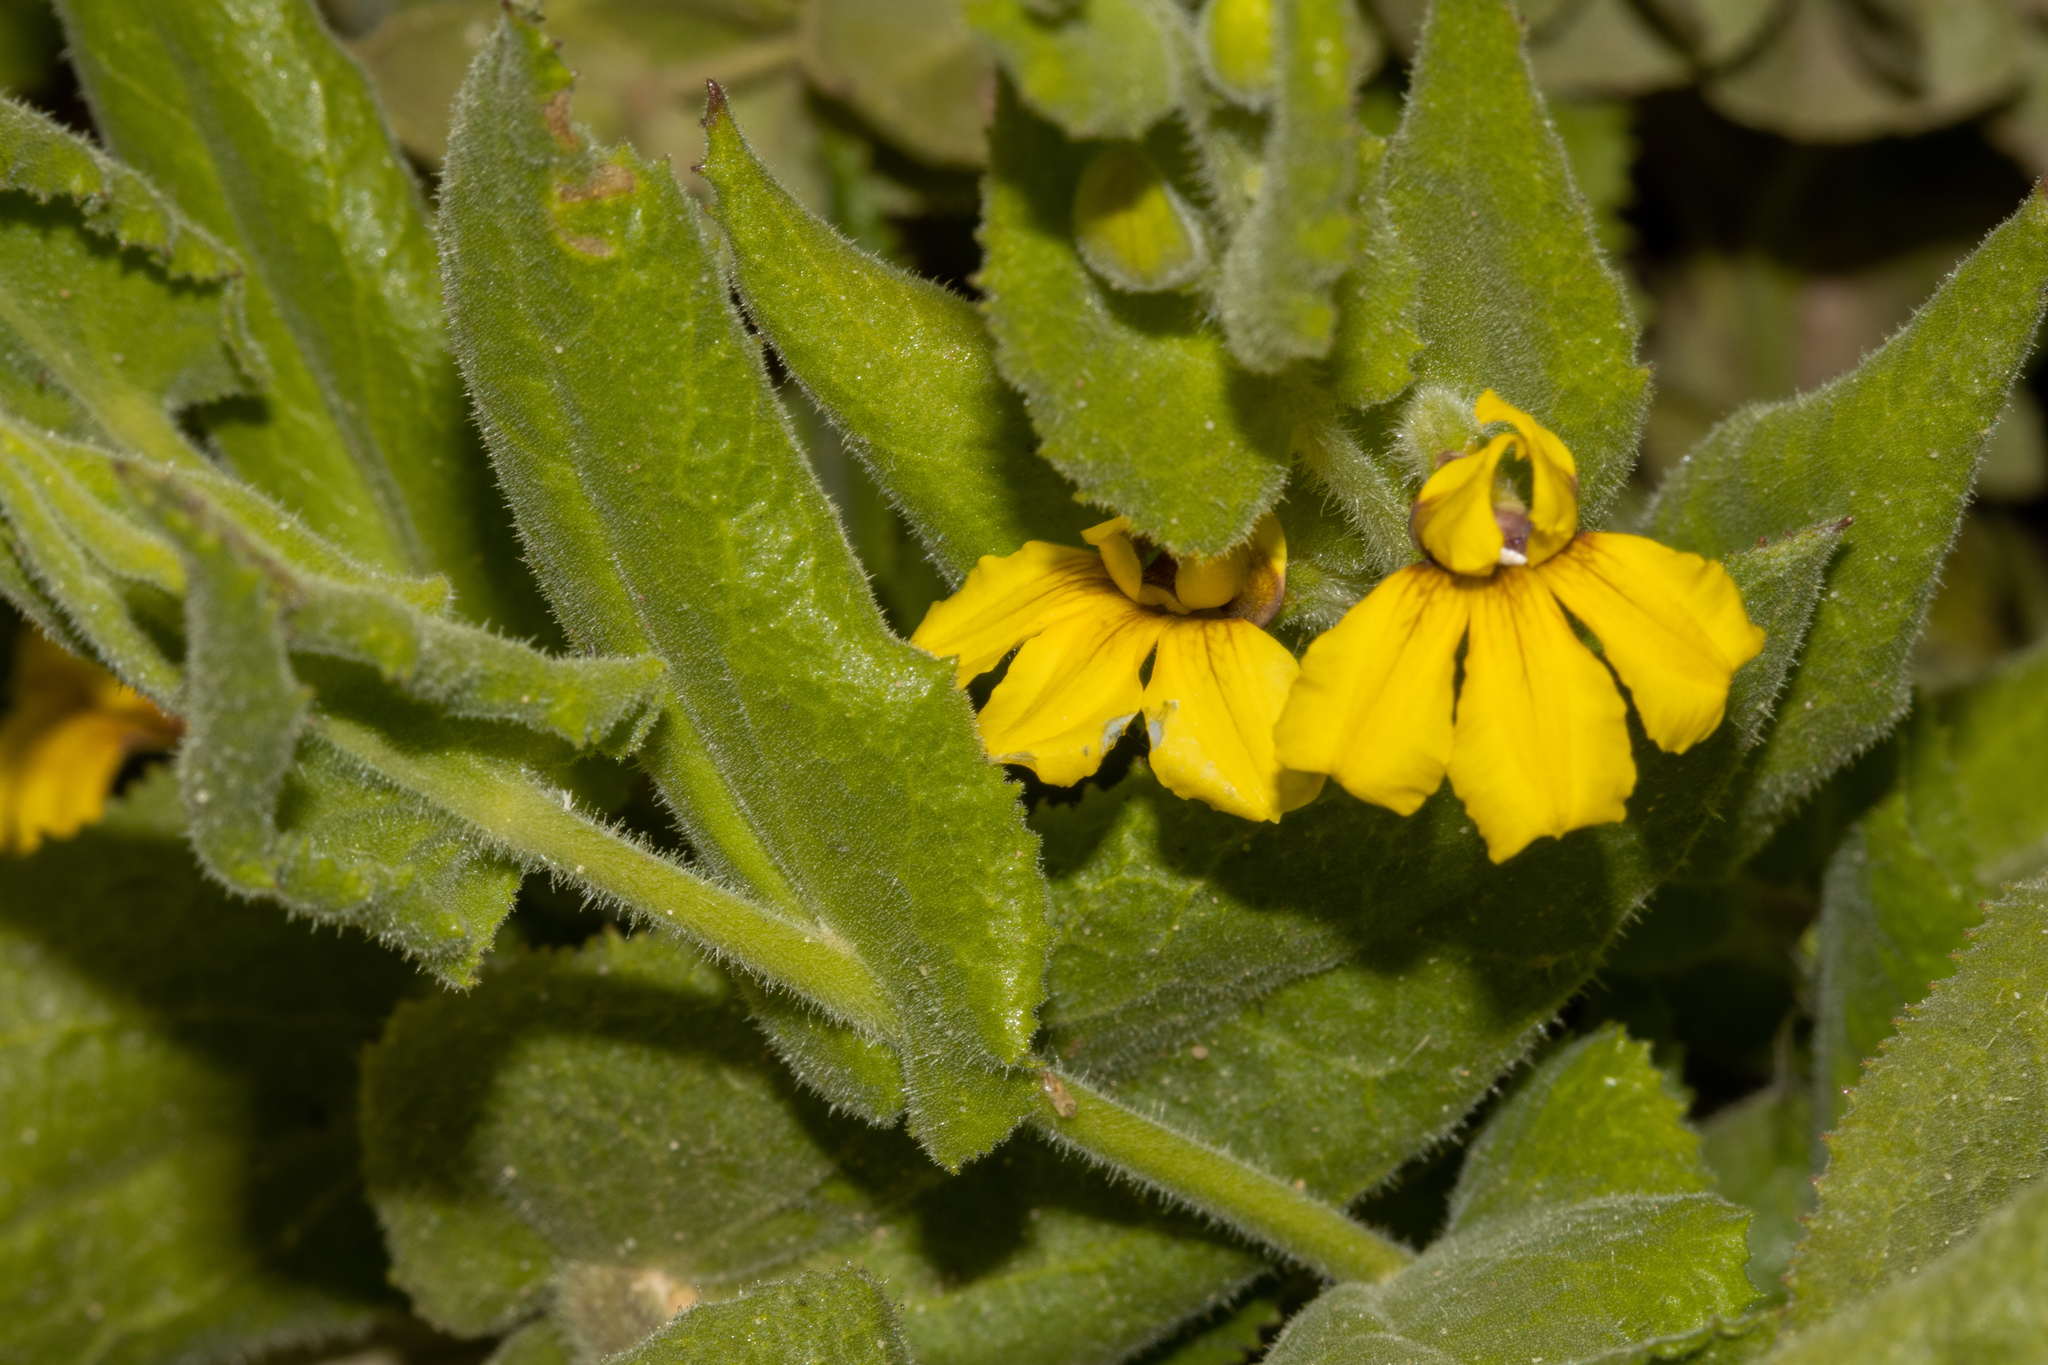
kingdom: Plantae
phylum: Tracheophyta
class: Magnoliopsida
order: Asterales
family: Goodeniaceae
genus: Goodenia
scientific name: Goodenia amplexans
